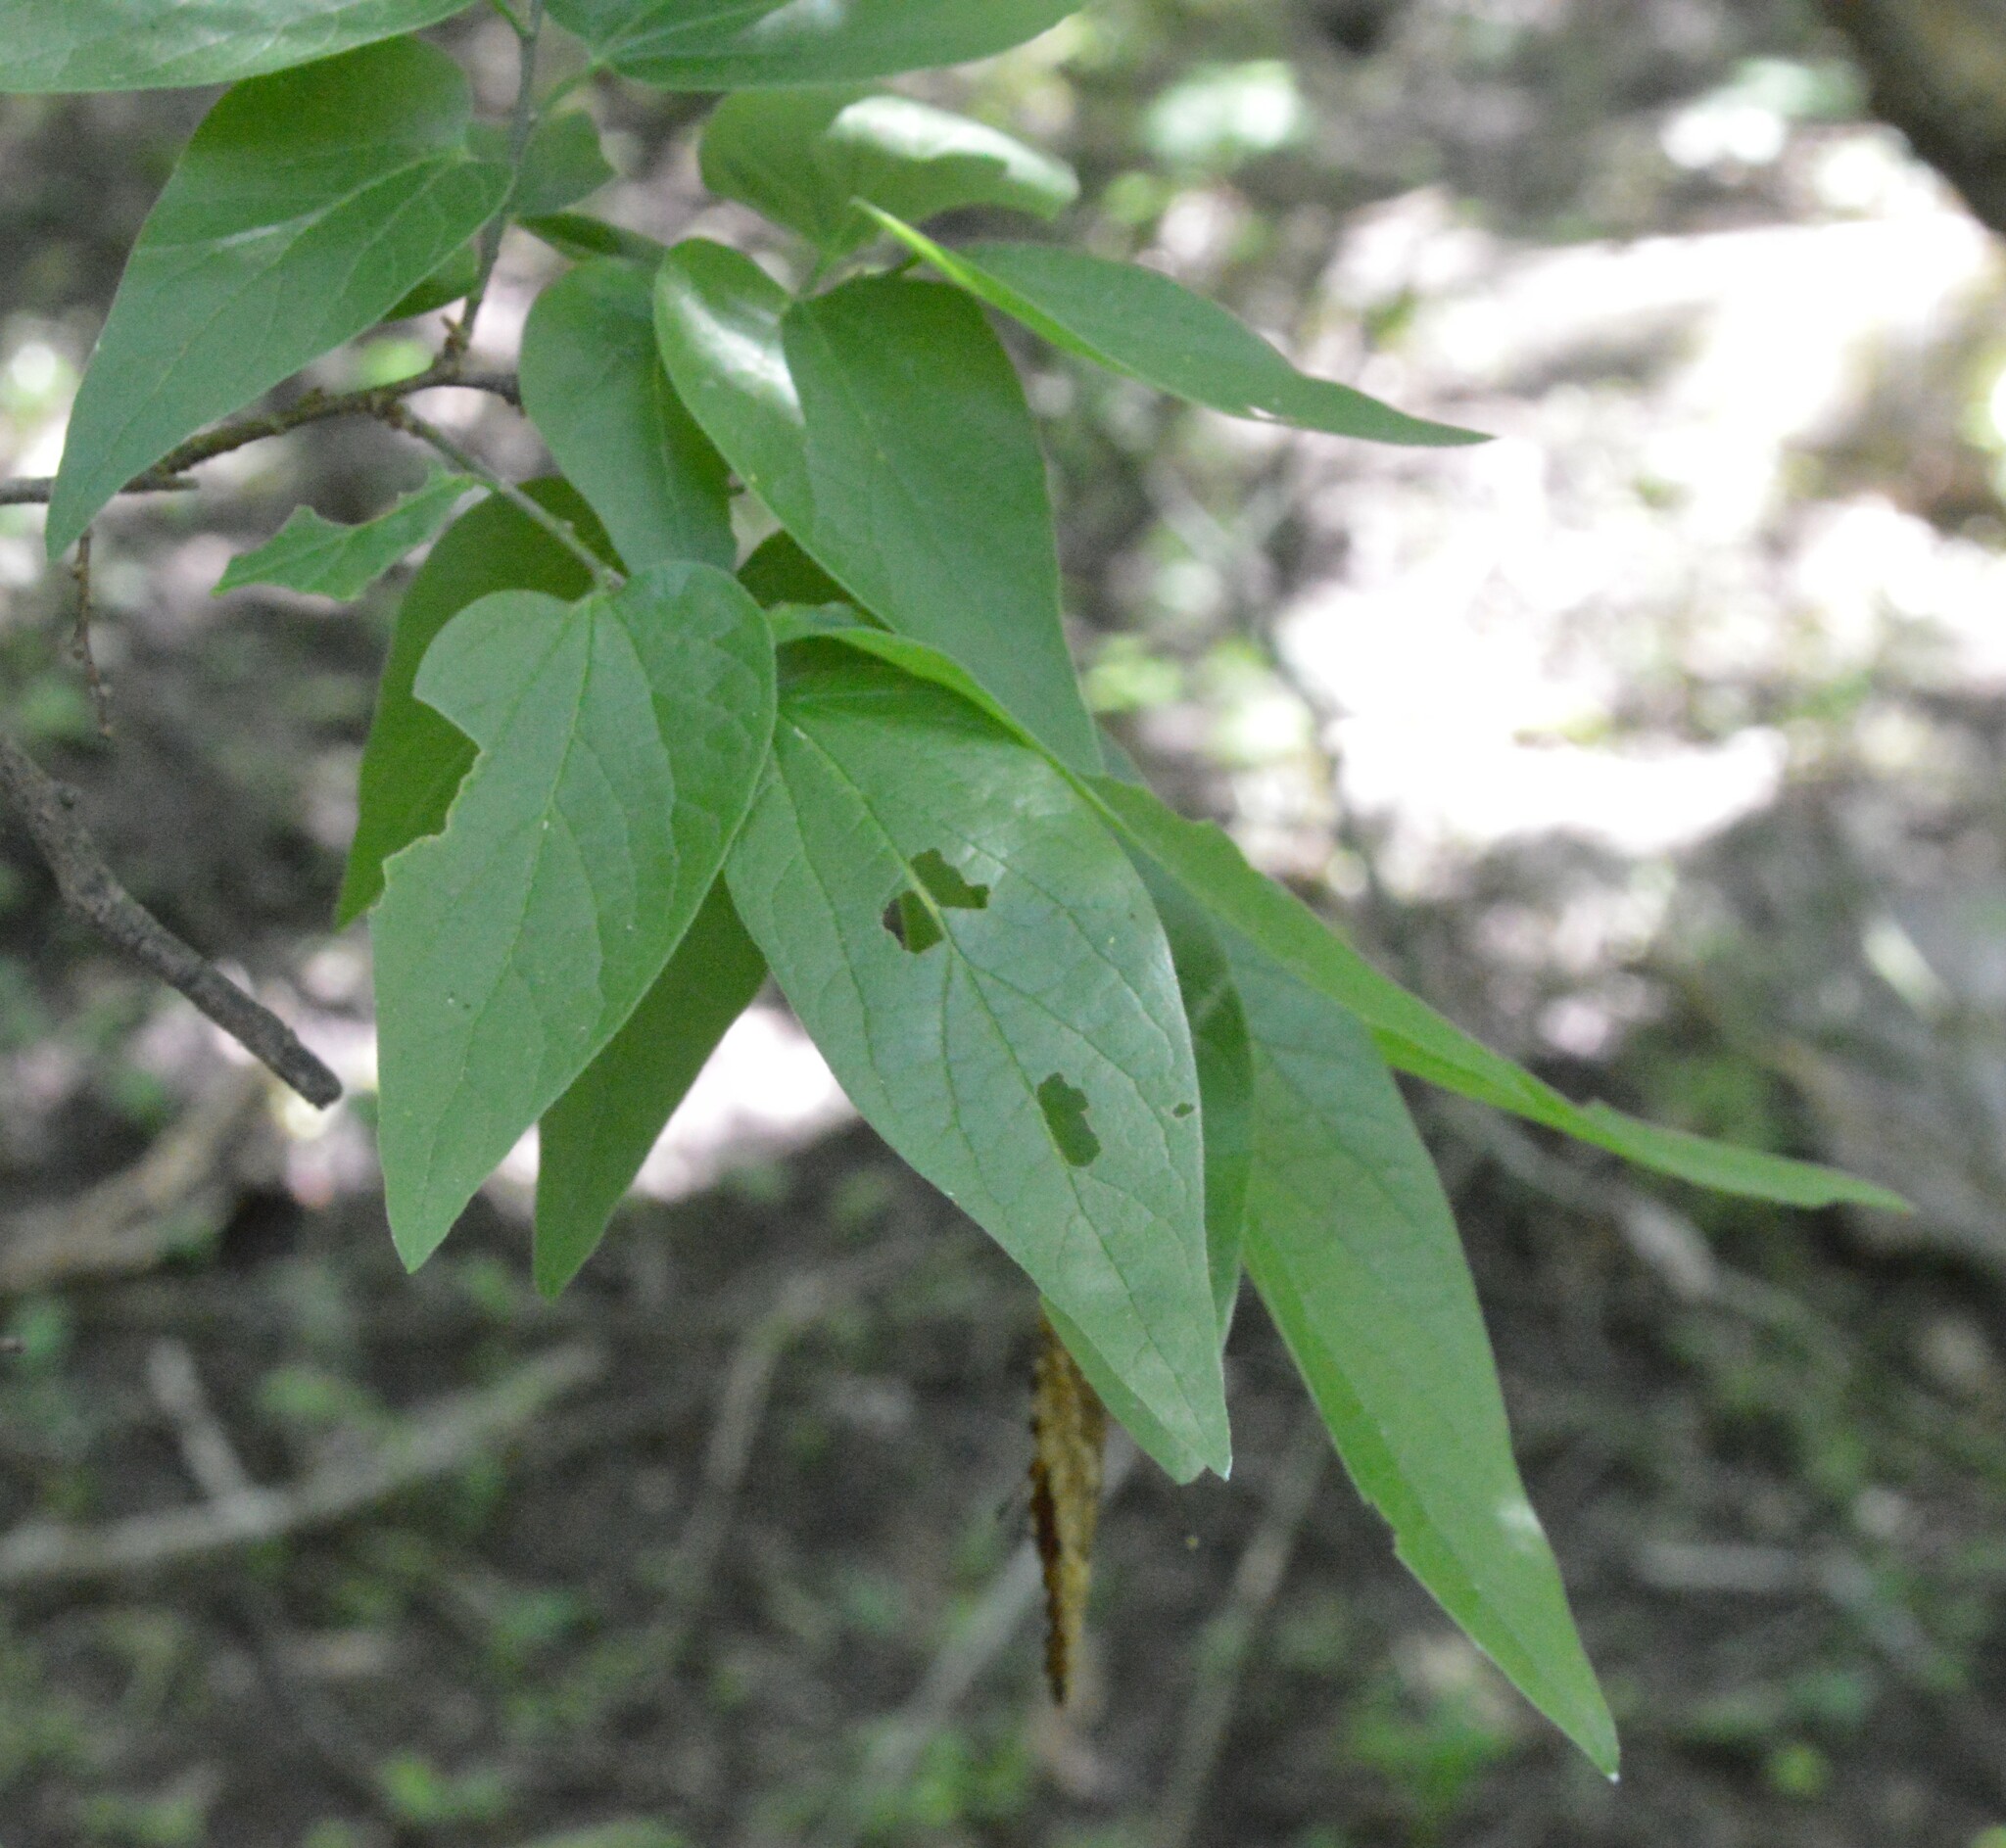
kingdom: Plantae
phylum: Tracheophyta
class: Magnoliopsida
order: Rosales
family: Cannabaceae
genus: Celtis
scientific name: Celtis laevigata
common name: Sugarberry
